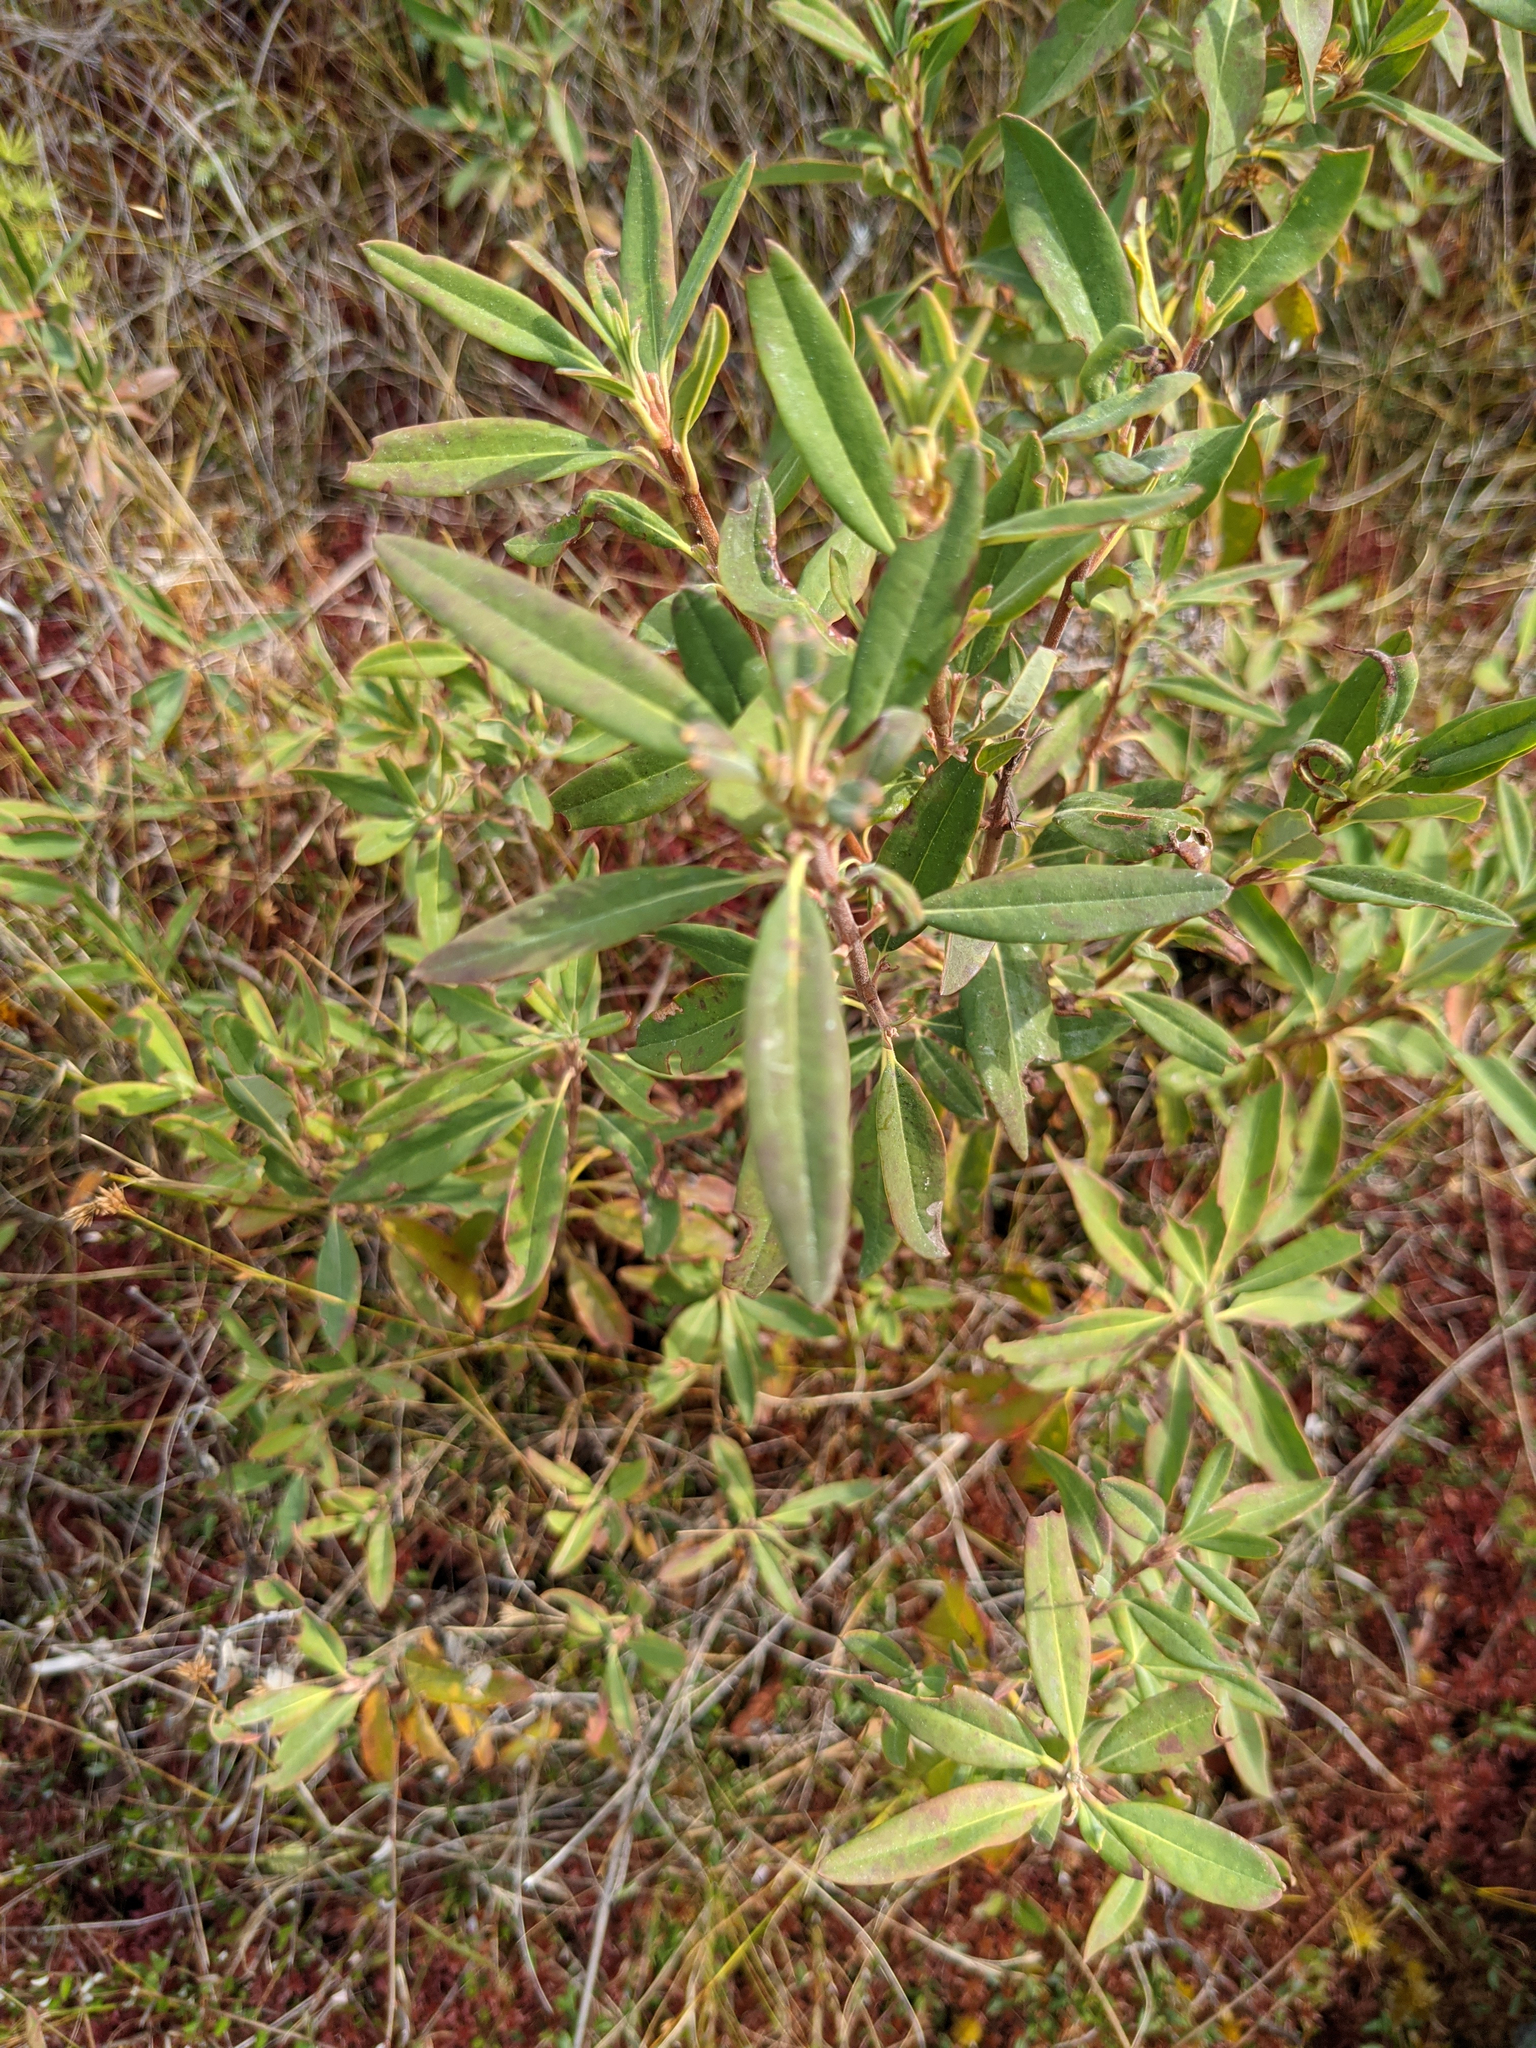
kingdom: Plantae
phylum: Tracheophyta
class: Magnoliopsida
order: Ericales
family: Ericaceae
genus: Kalmia
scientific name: Kalmia angustifolia
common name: Sheep-laurel
